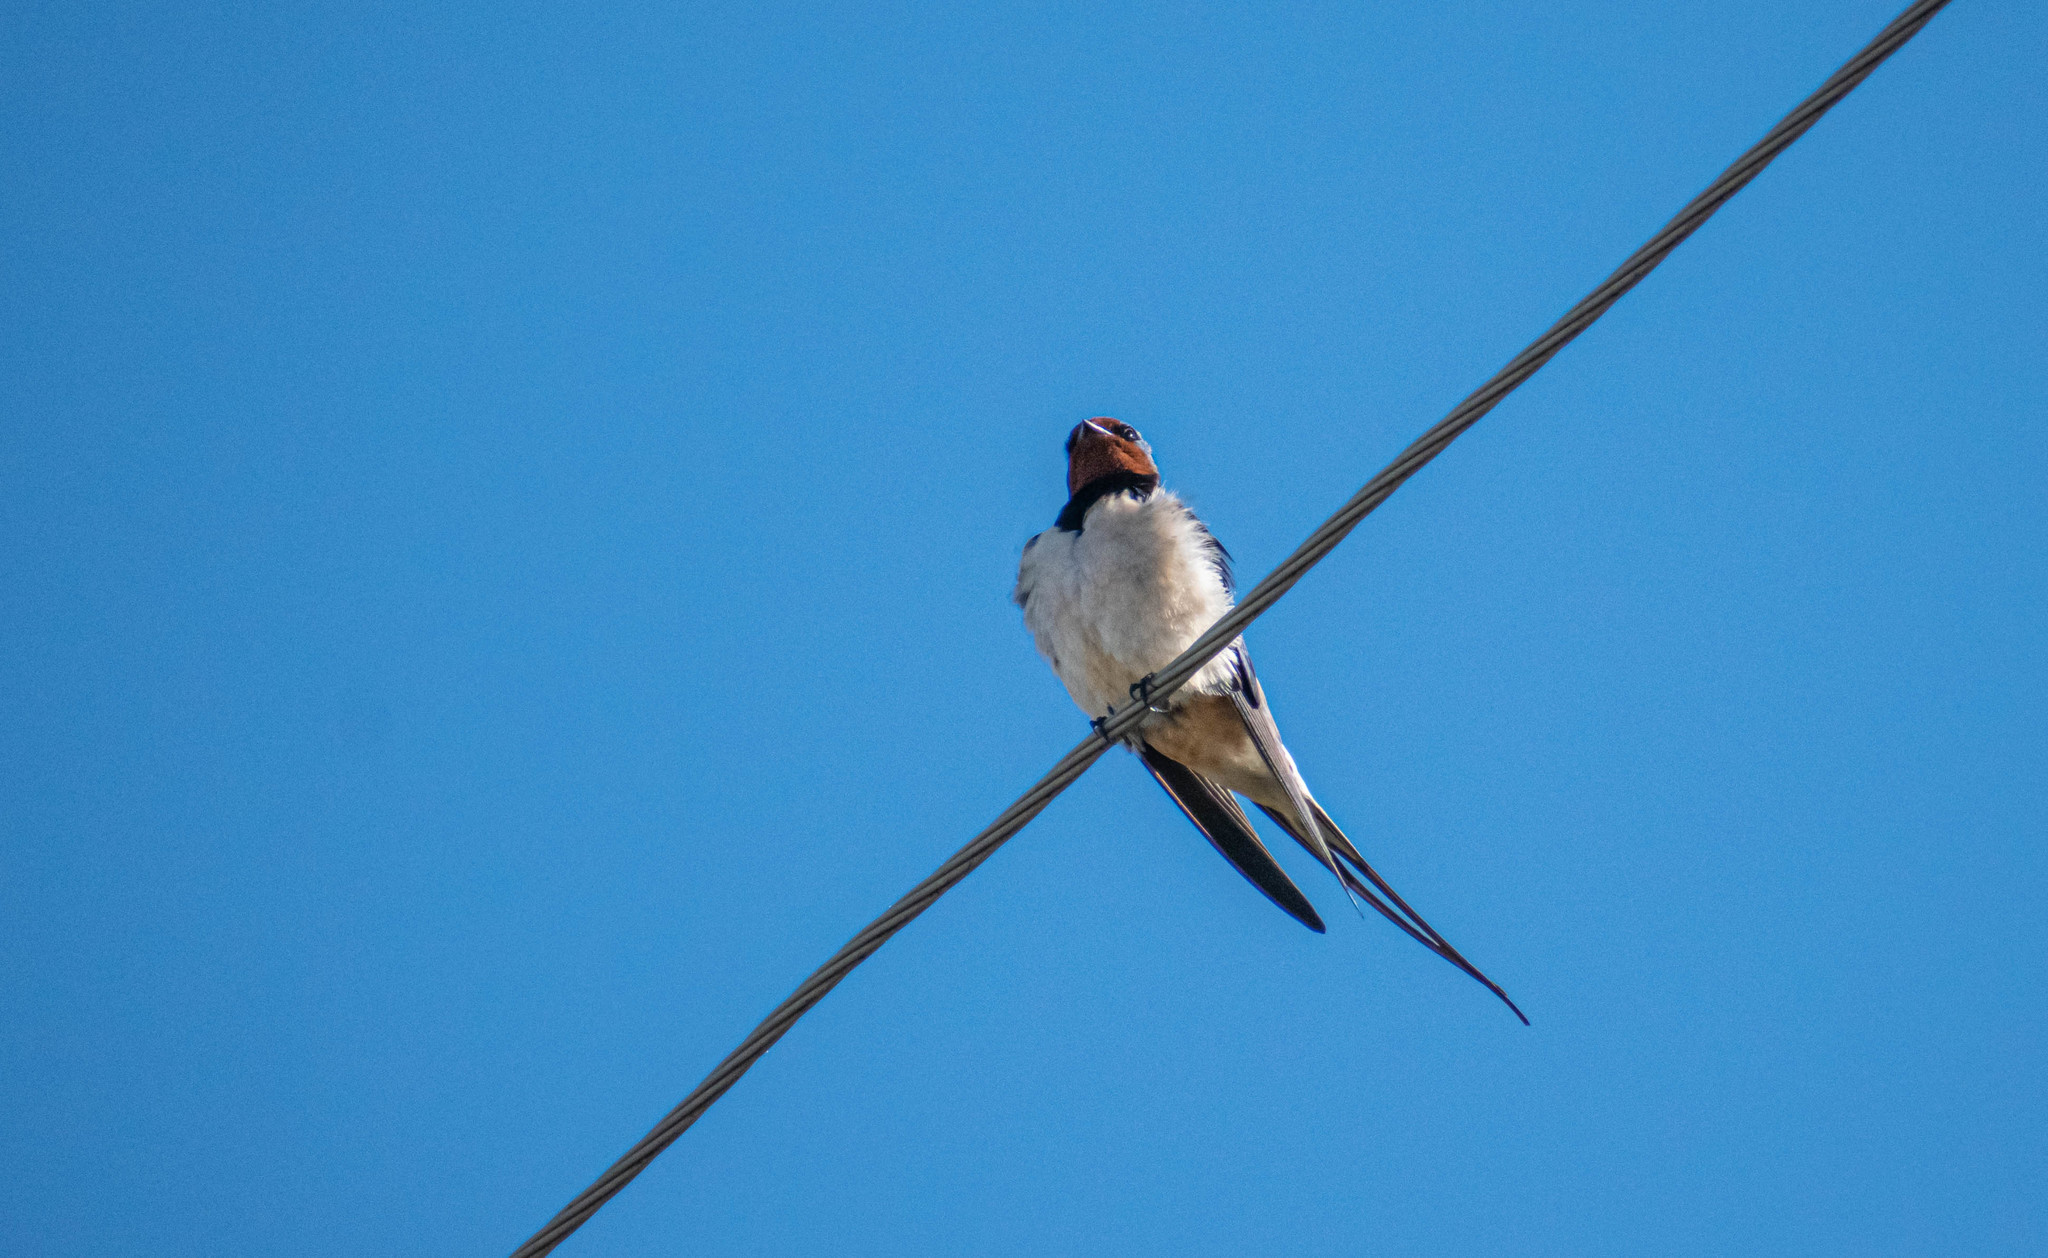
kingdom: Animalia
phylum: Chordata
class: Aves
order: Passeriformes
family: Hirundinidae
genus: Hirundo
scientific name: Hirundo rustica
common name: Barn swallow
